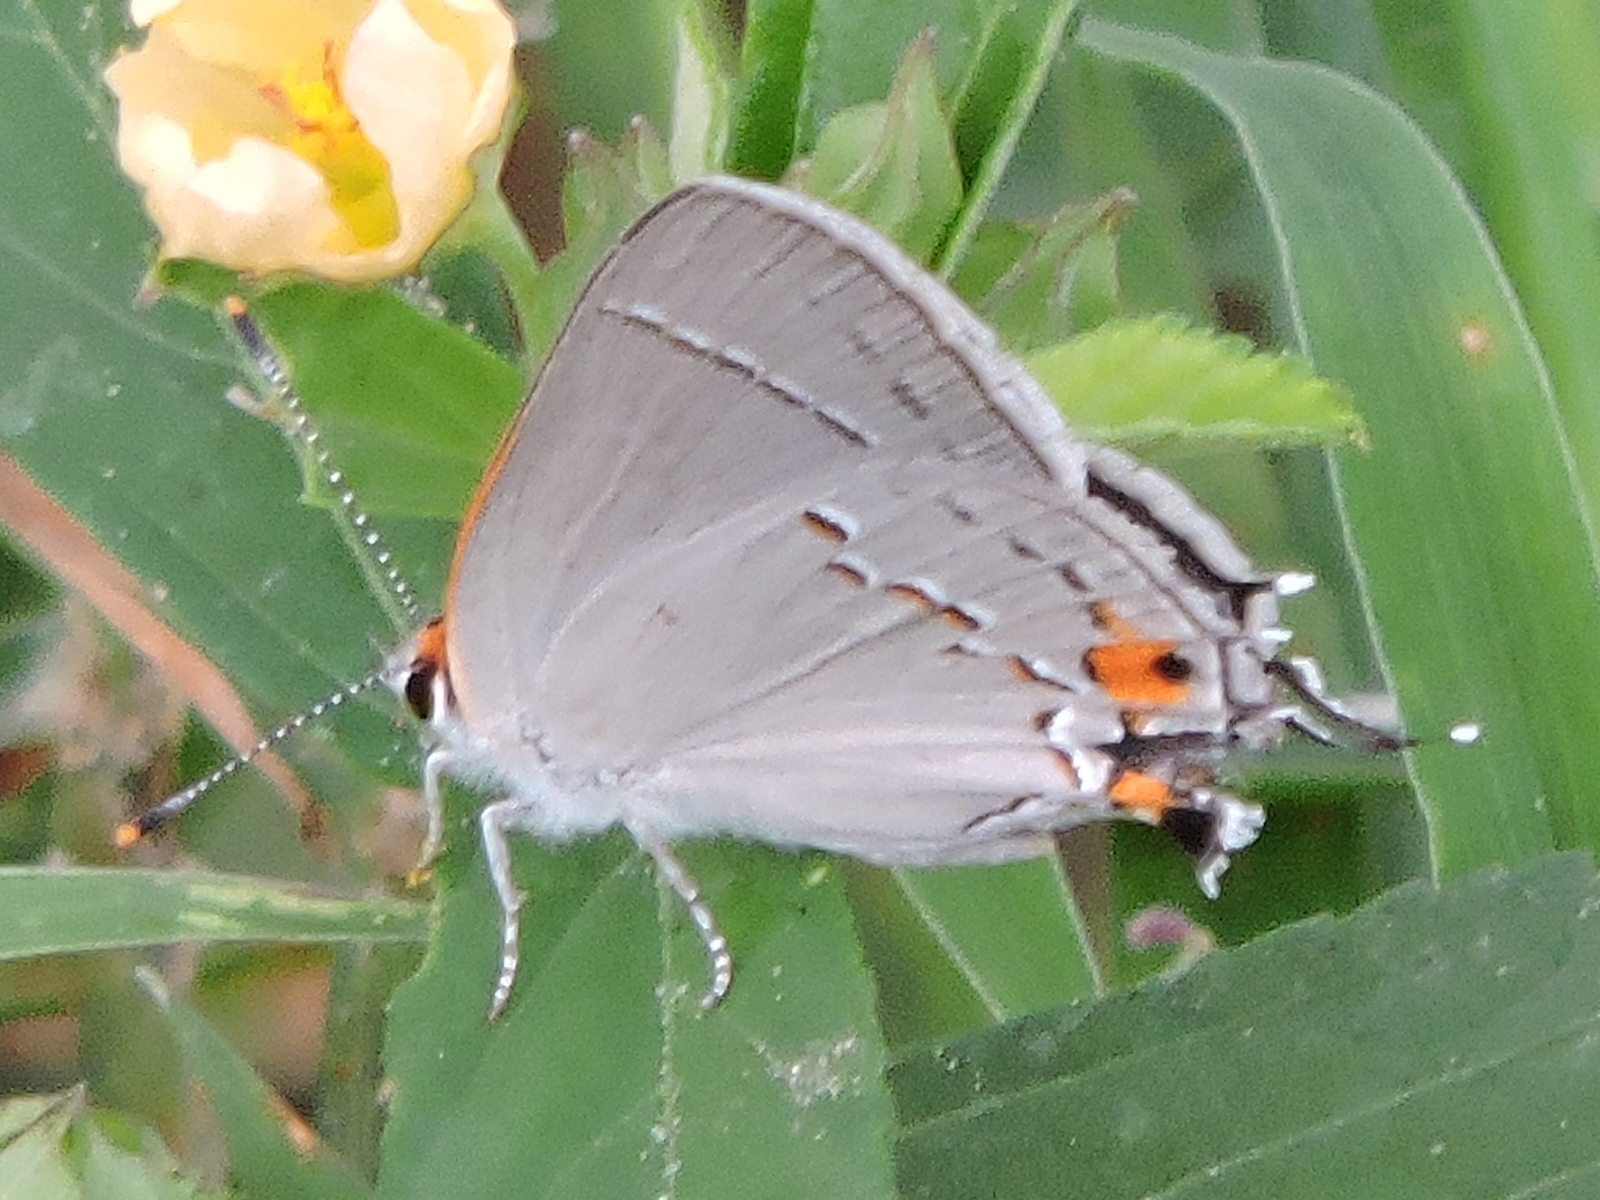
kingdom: Animalia
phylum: Arthropoda
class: Insecta
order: Lepidoptera
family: Lycaenidae
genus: Strymon
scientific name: Strymon melinus
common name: Gray hairstreak
